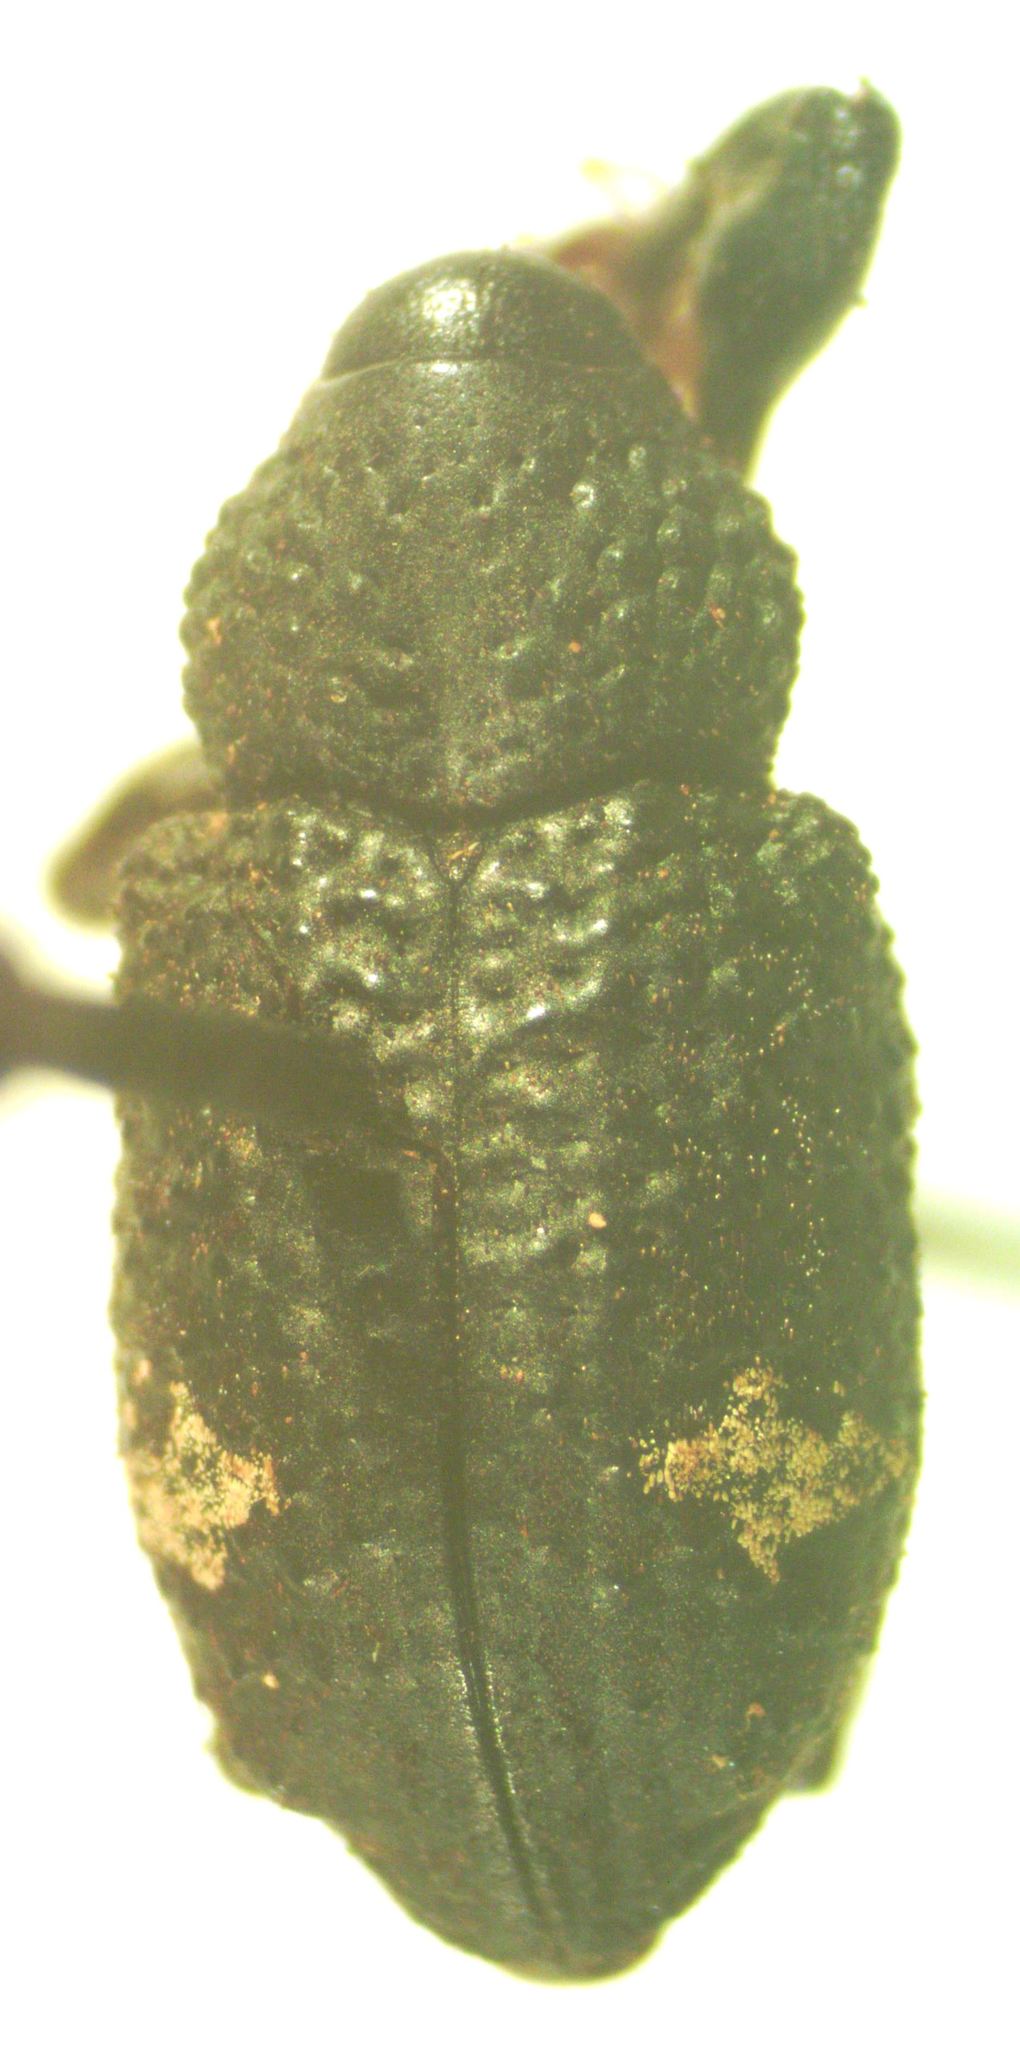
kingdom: Animalia
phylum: Arthropoda
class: Insecta
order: Coleoptera
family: Curculionidae
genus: Heilipus
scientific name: Heilipus tuberculosus
